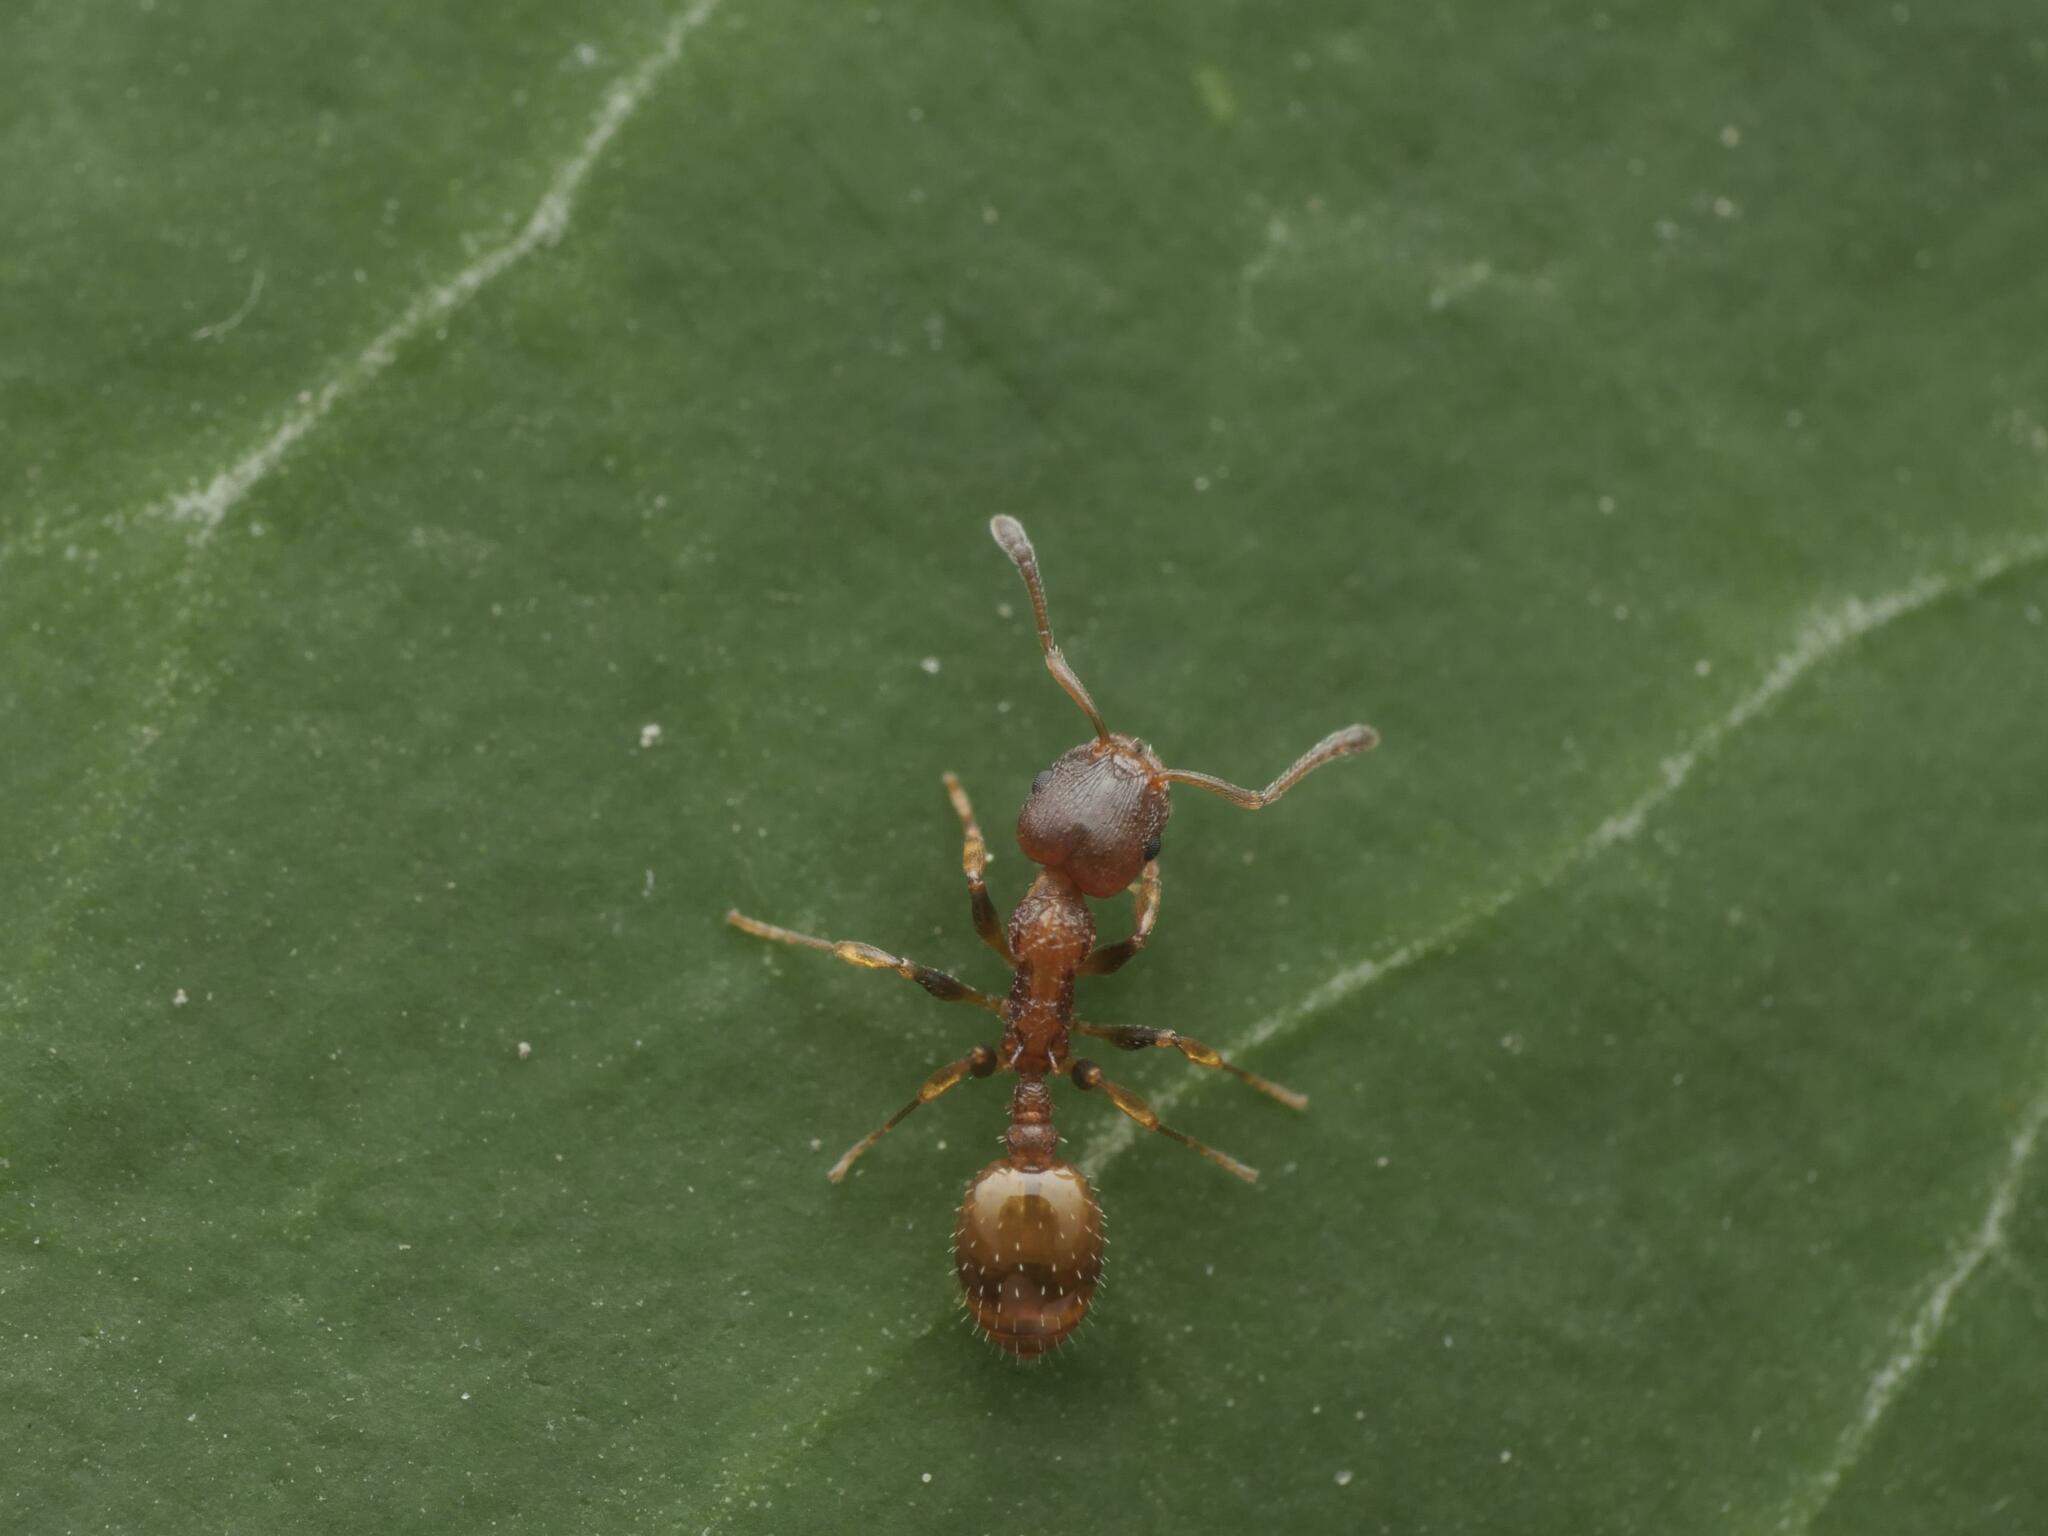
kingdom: Animalia
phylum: Arthropoda
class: Insecta
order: Hymenoptera
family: Formicidae
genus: Leptothorax
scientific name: Leptothorax affinis
